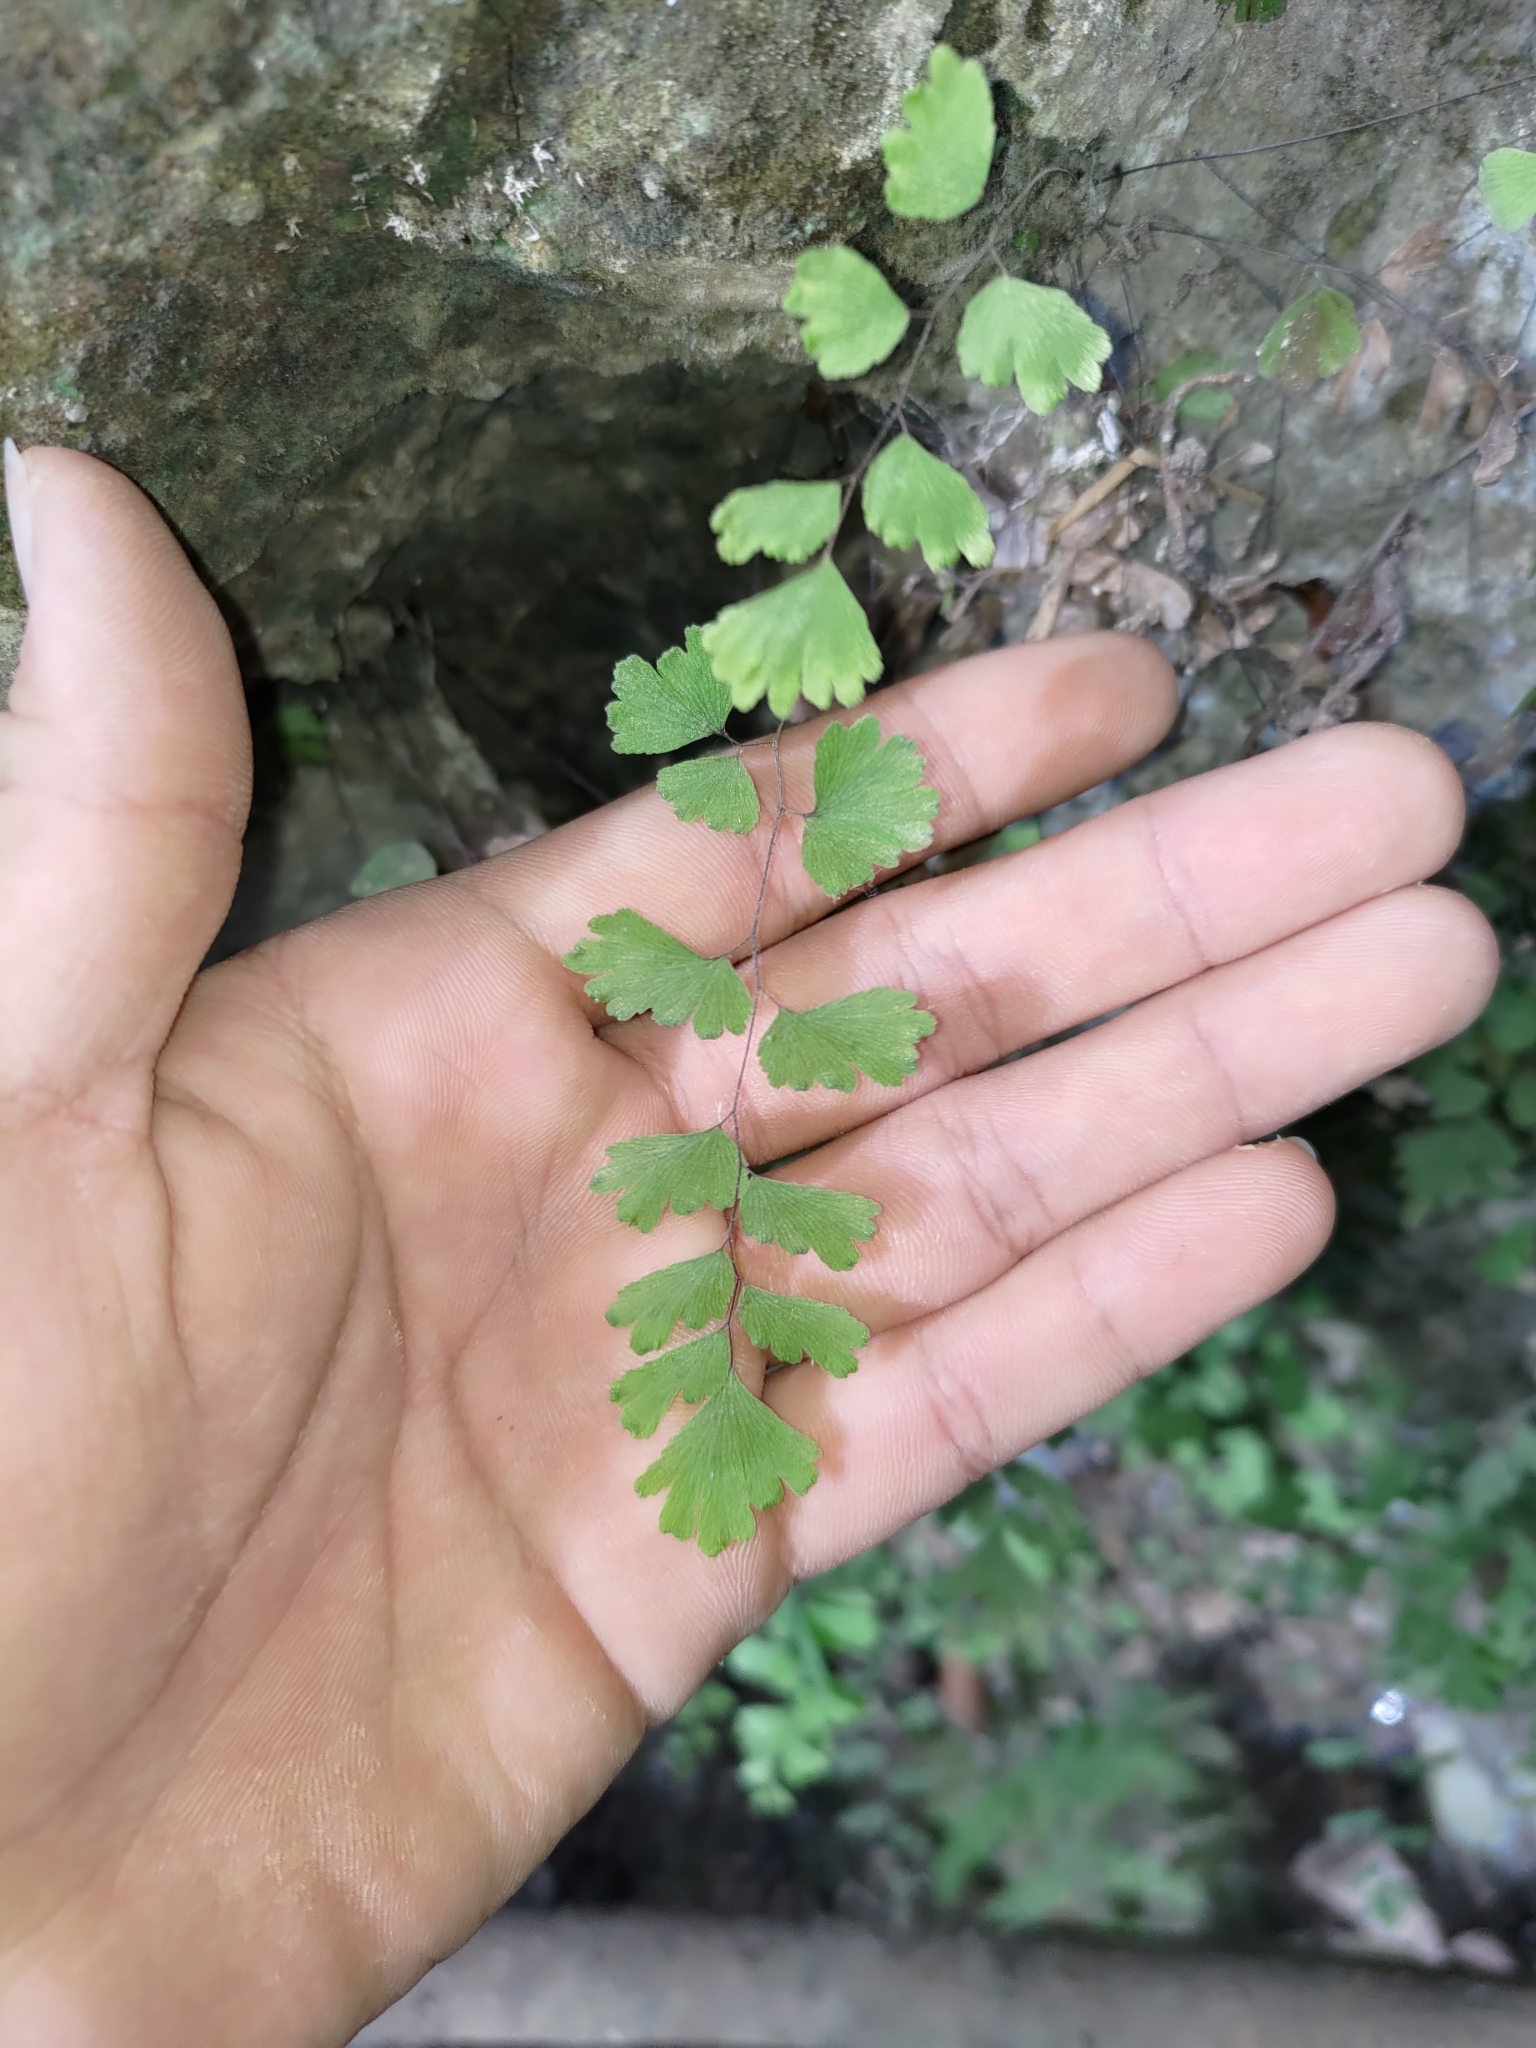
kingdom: Plantae
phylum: Tracheophyta
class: Polypodiopsida
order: Polypodiales
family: Pteridaceae
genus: Adiantum
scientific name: Adiantum capillus-veneris
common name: Maidenhair fern
